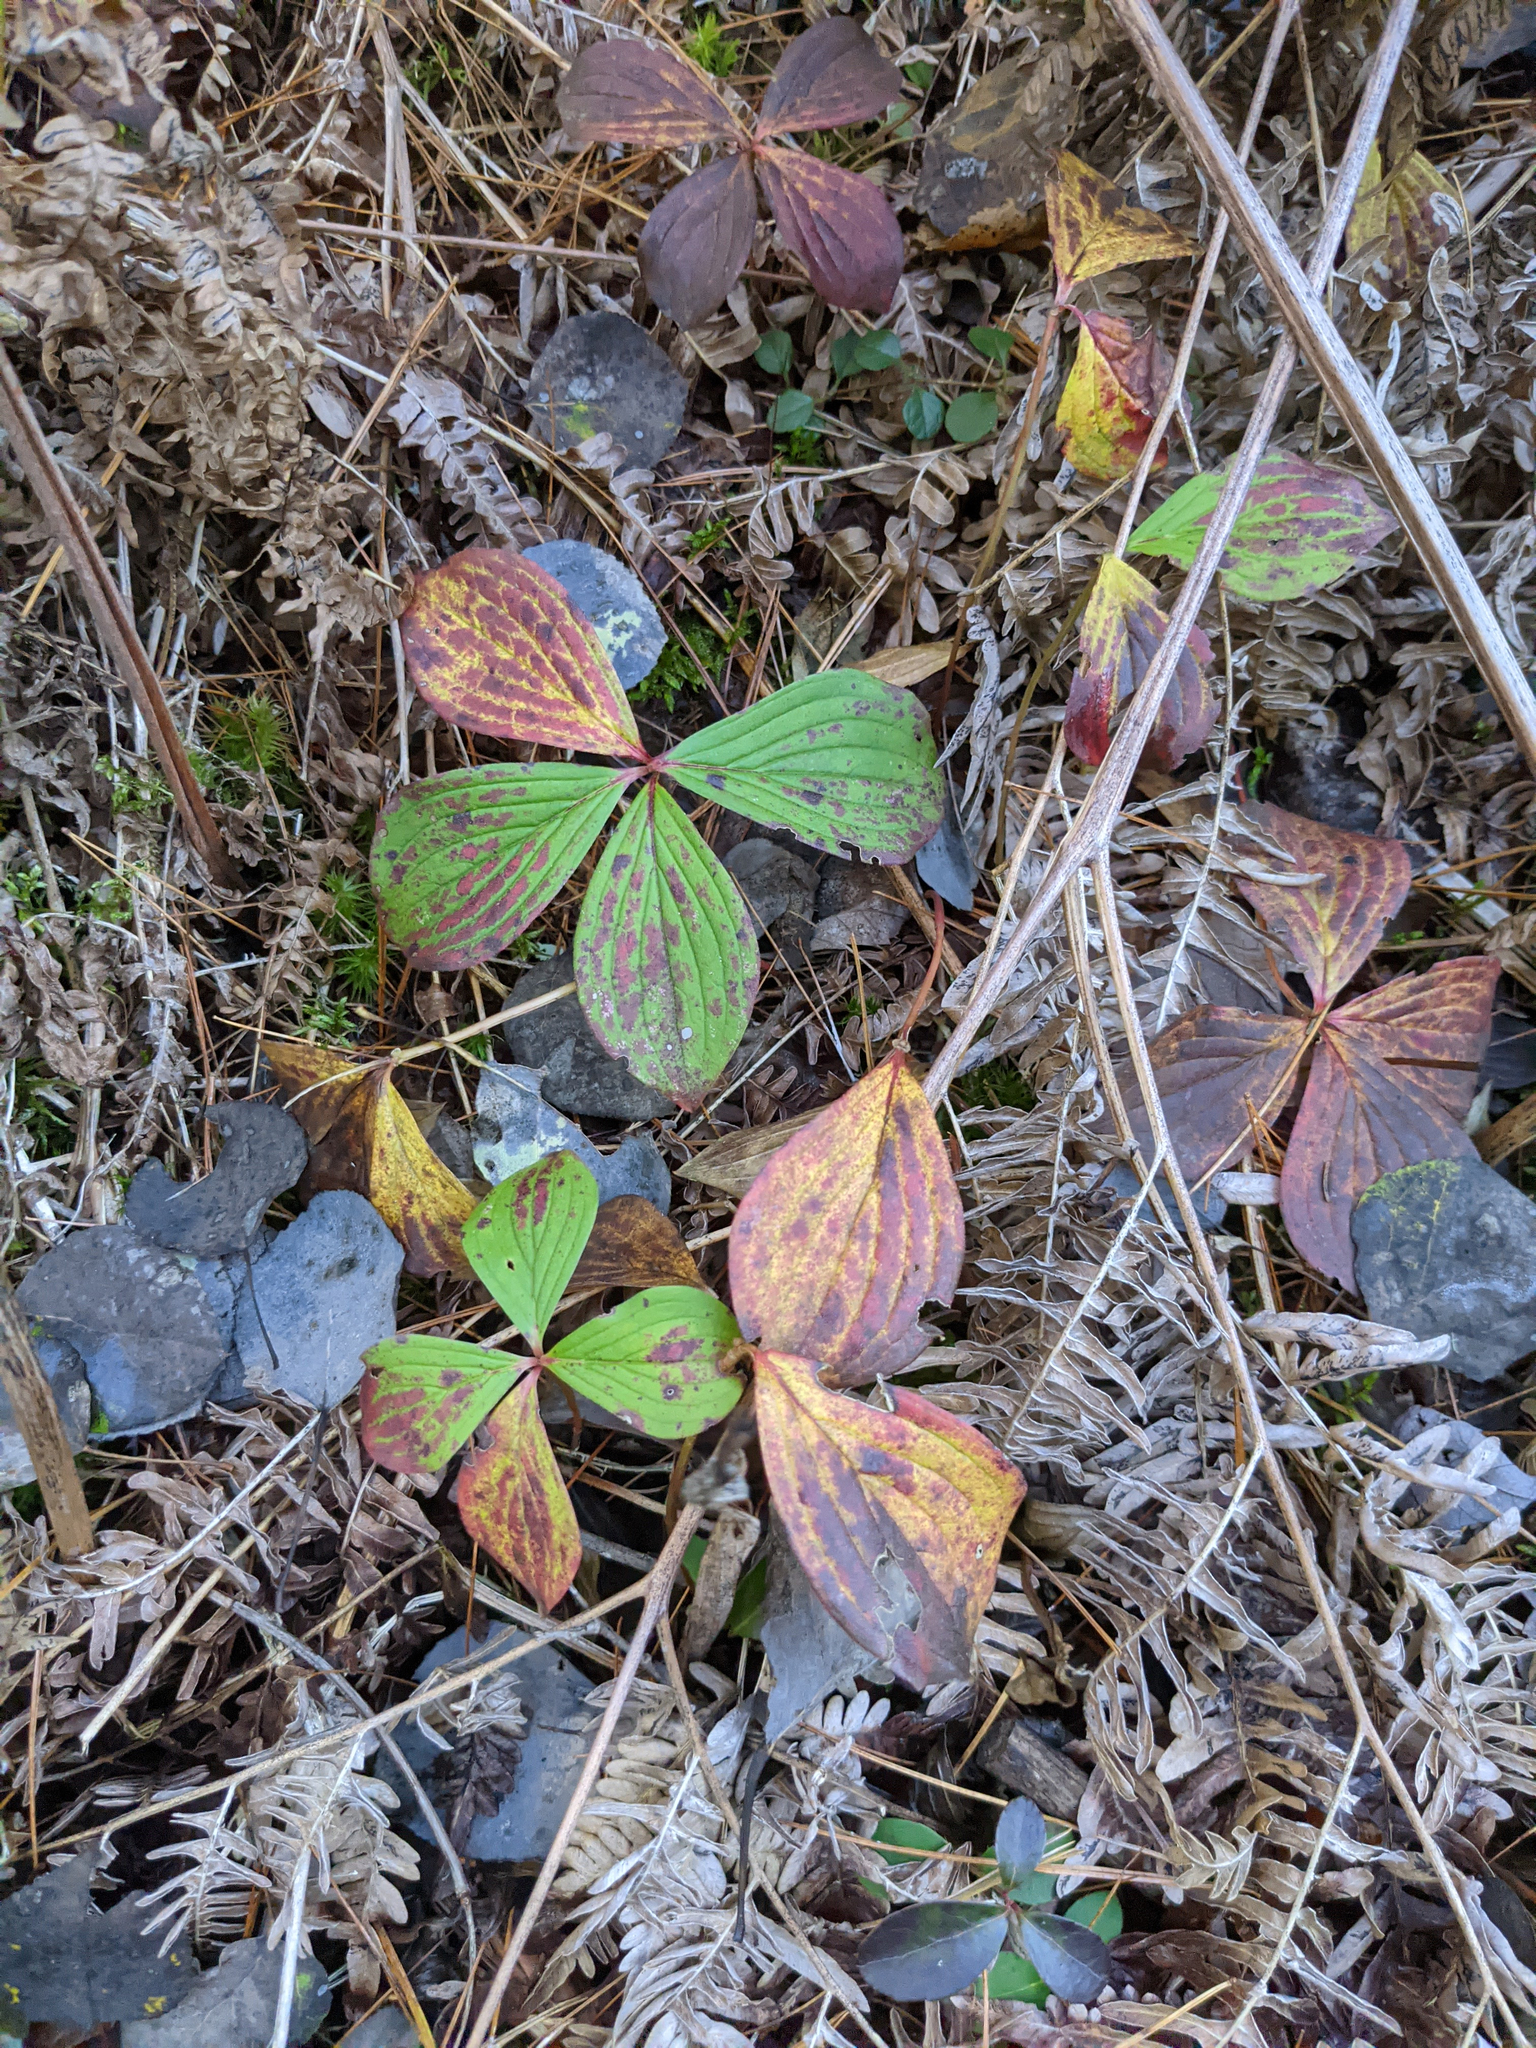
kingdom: Plantae
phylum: Tracheophyta
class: Magnoliopsida
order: Cornales
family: Cornaceae
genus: Cornus
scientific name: Cornus canadensis
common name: Creeping dogwood
